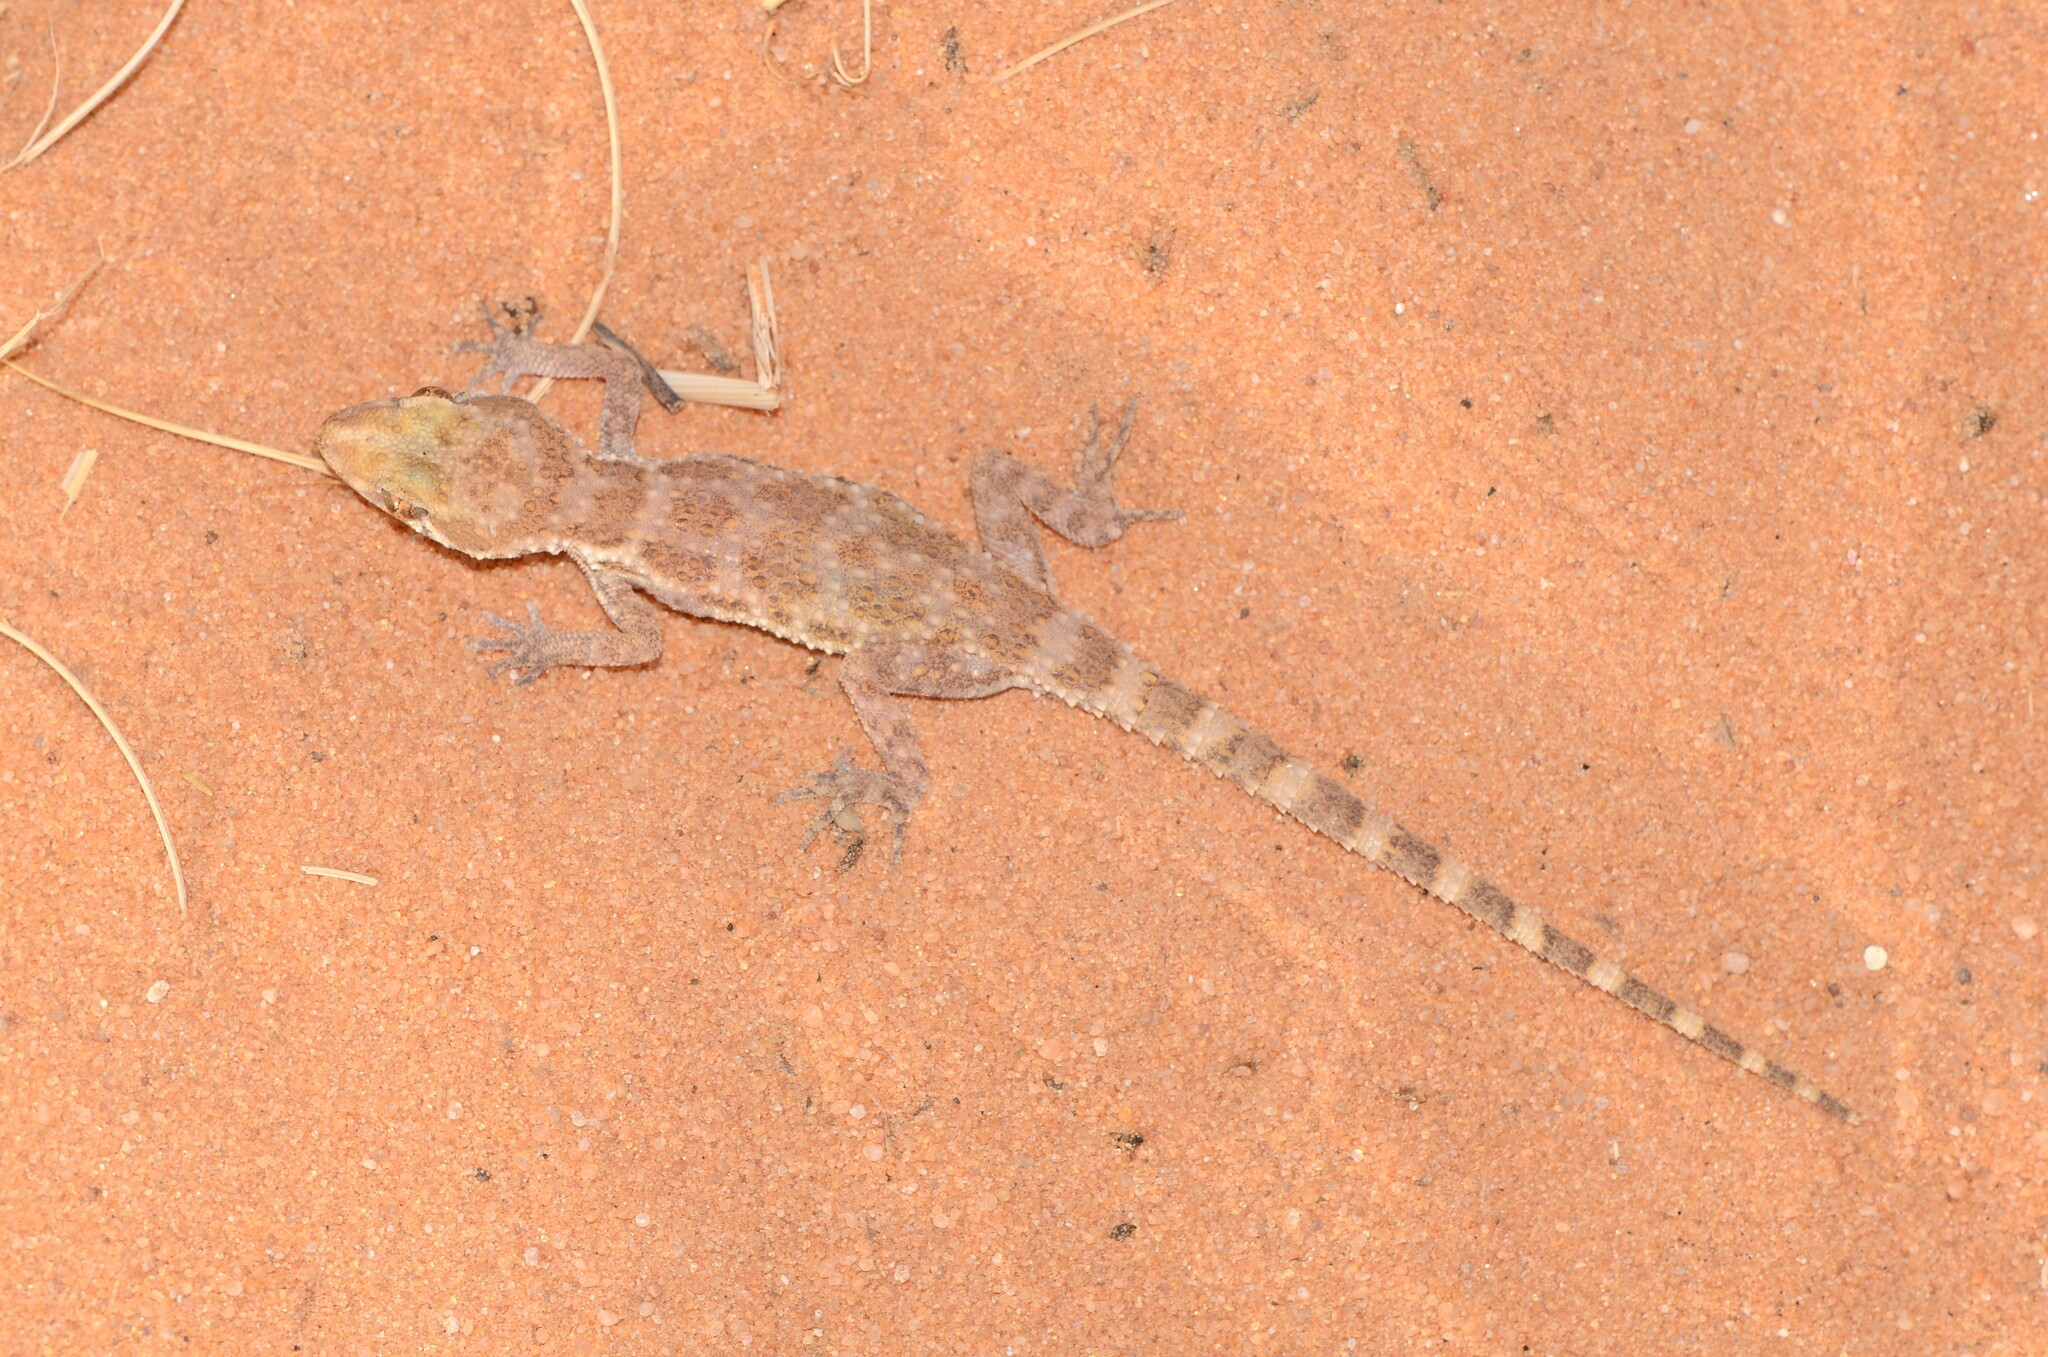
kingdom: Animalia
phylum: Chordata
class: Squamata
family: Gekkonidae
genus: Bunopus
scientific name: Bunopus tuberculatus
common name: Southern tuberculated gecko
